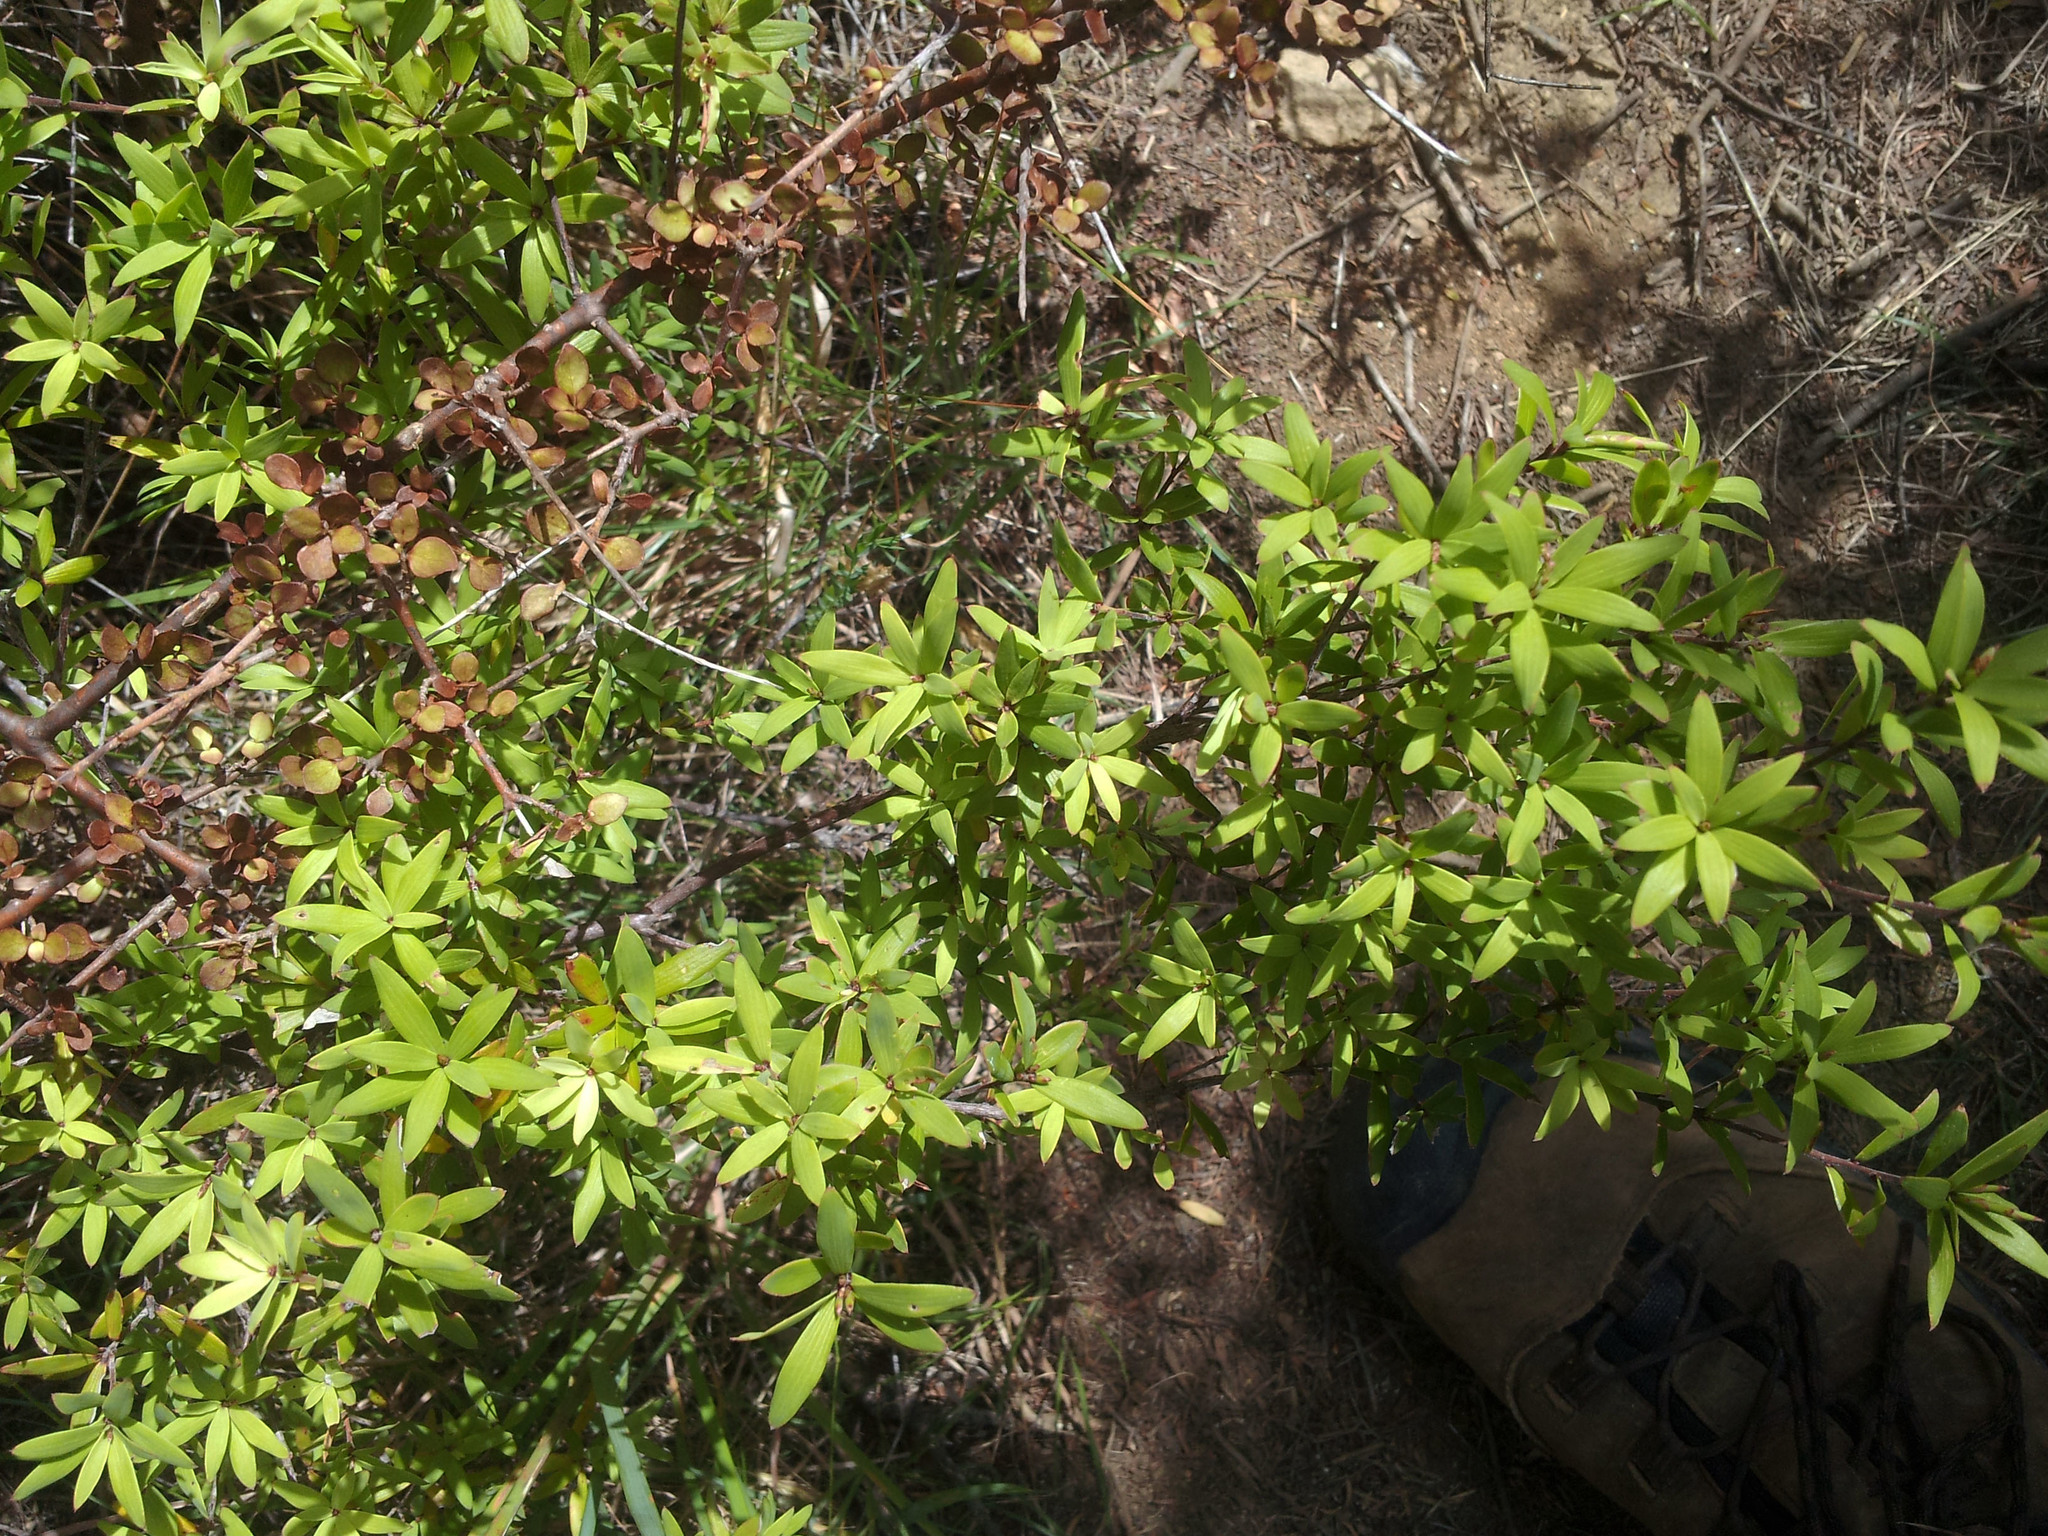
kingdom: Plantae
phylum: Tracheophyta
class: Magnoliopsida
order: Ericales
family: Ericaceae
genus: Leucopogon
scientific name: Leucopogon fasciculatus
